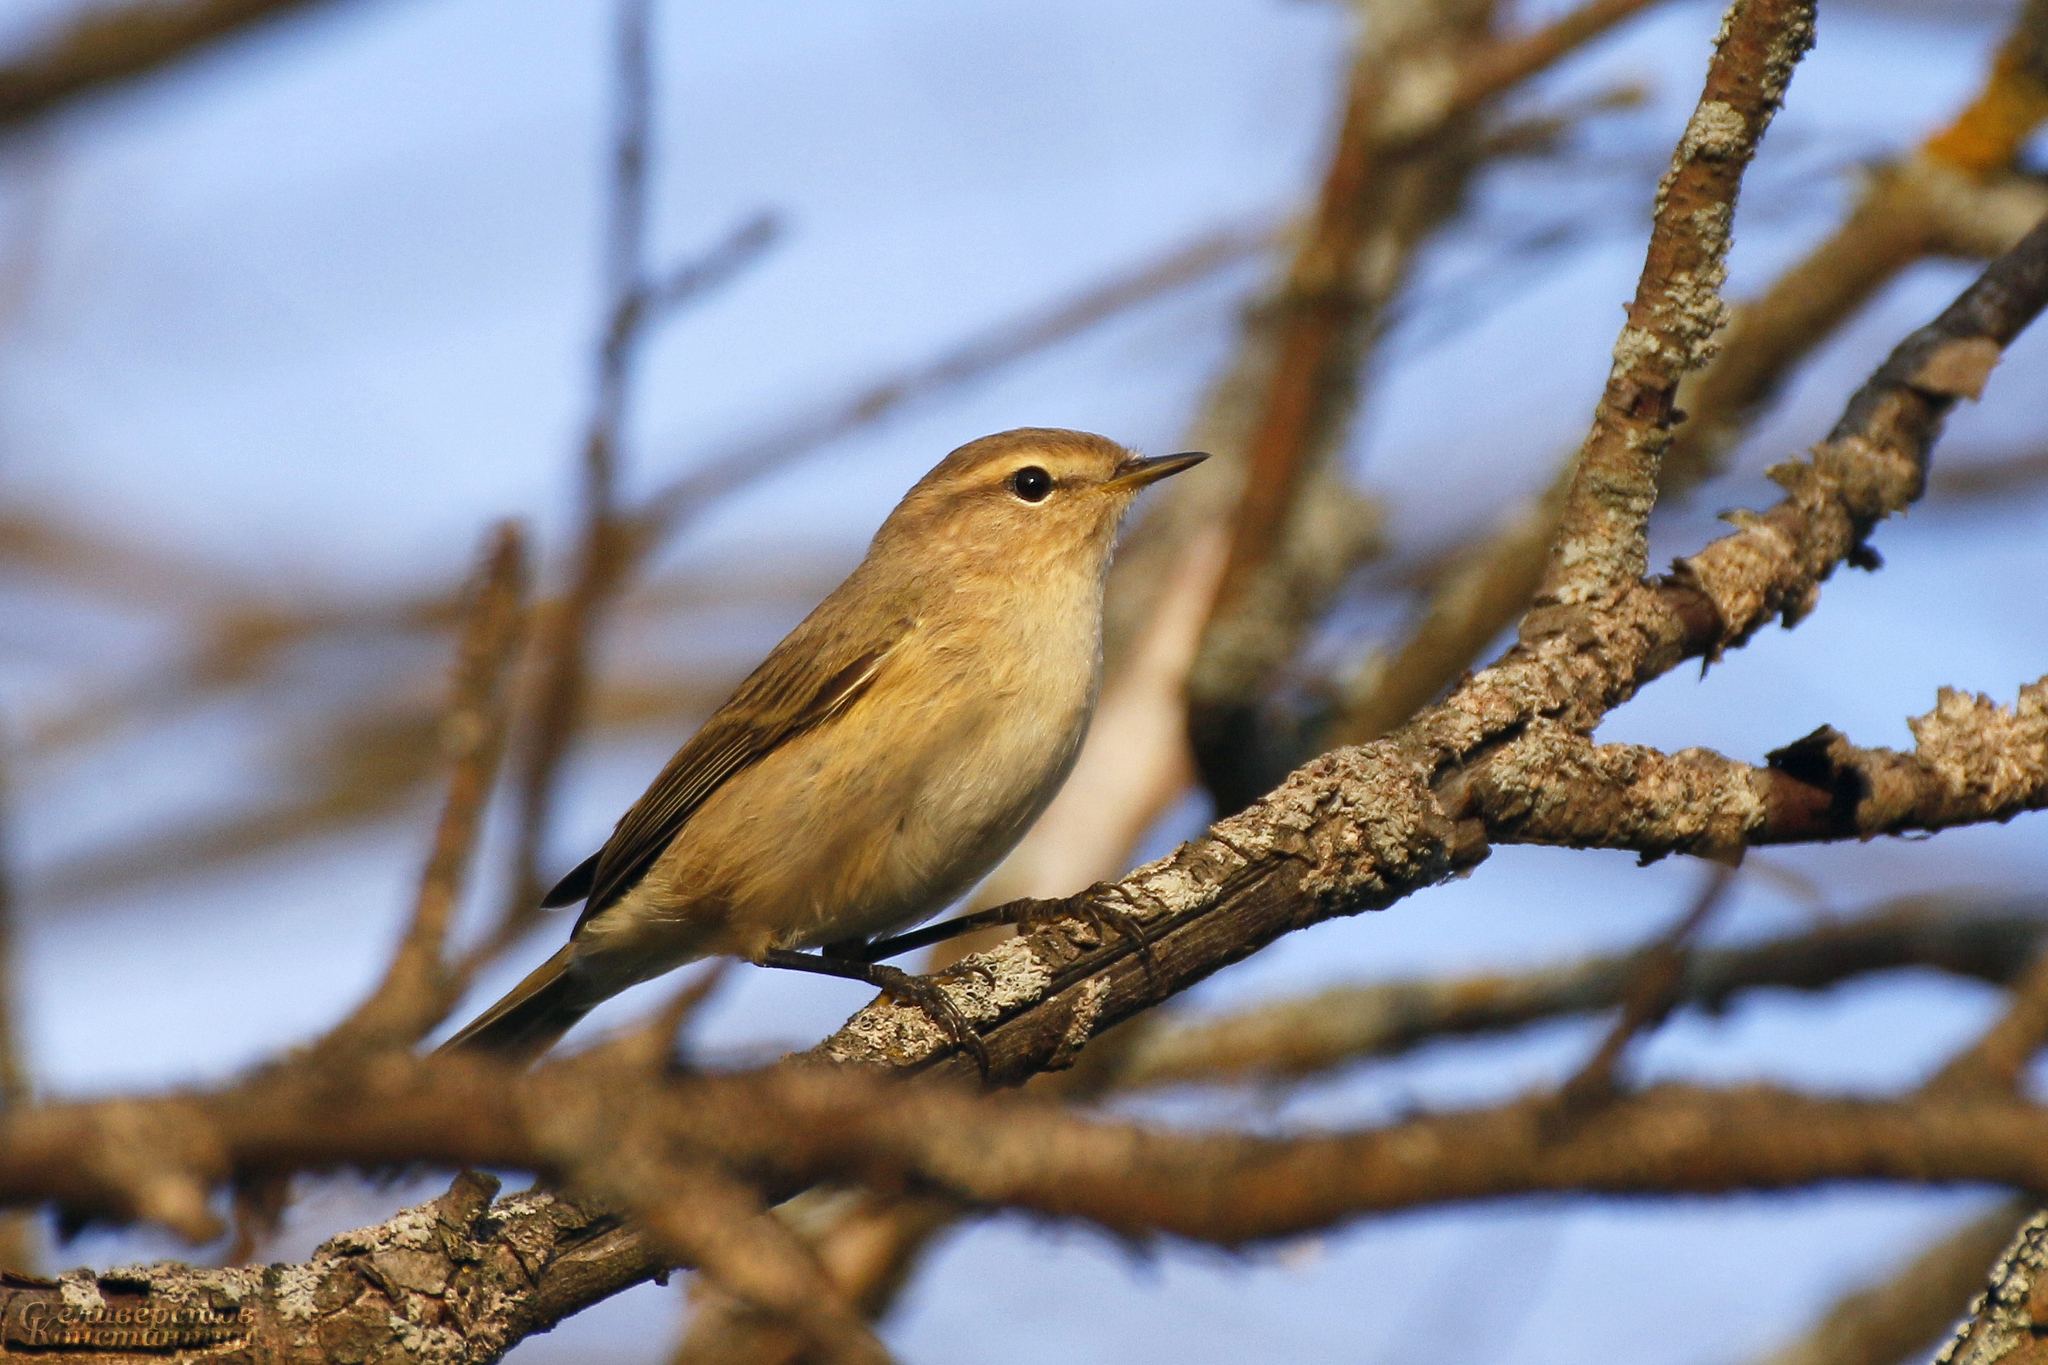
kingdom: Animalia
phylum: Chordata
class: Aves
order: Passeriformes
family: Phylloscopidae
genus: Phylloscopus
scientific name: Phylloscopus collybita
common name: Common chiffchaff
